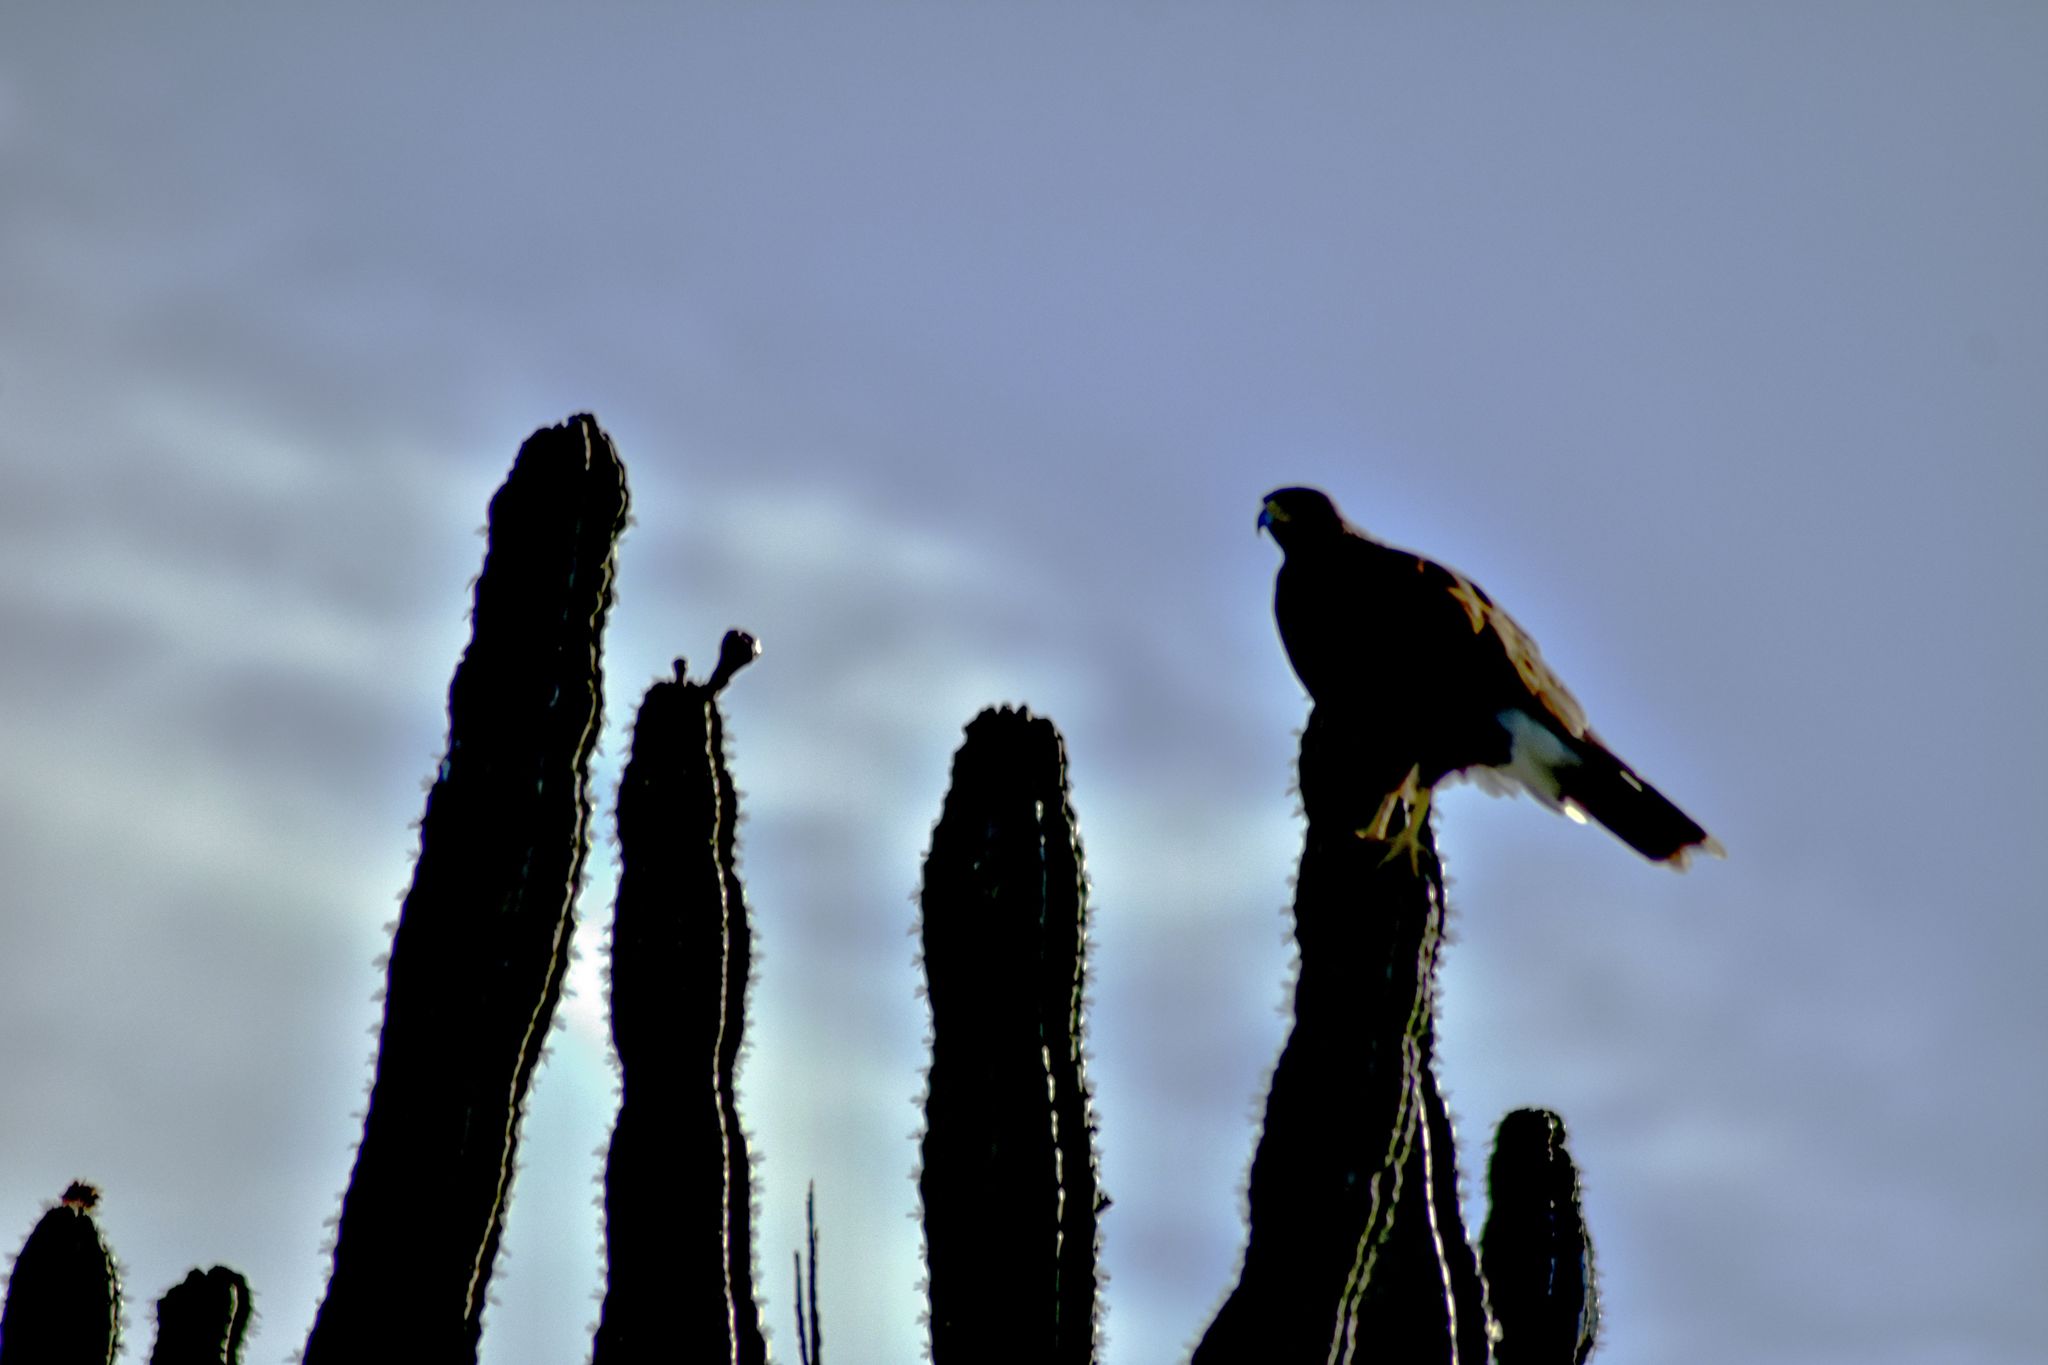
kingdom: Animalia
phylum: Chordata
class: Aves
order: Accipitriformes
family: Accipitridae
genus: Parabuteo
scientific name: Parabuteo unicinctus
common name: Harris's hawk
